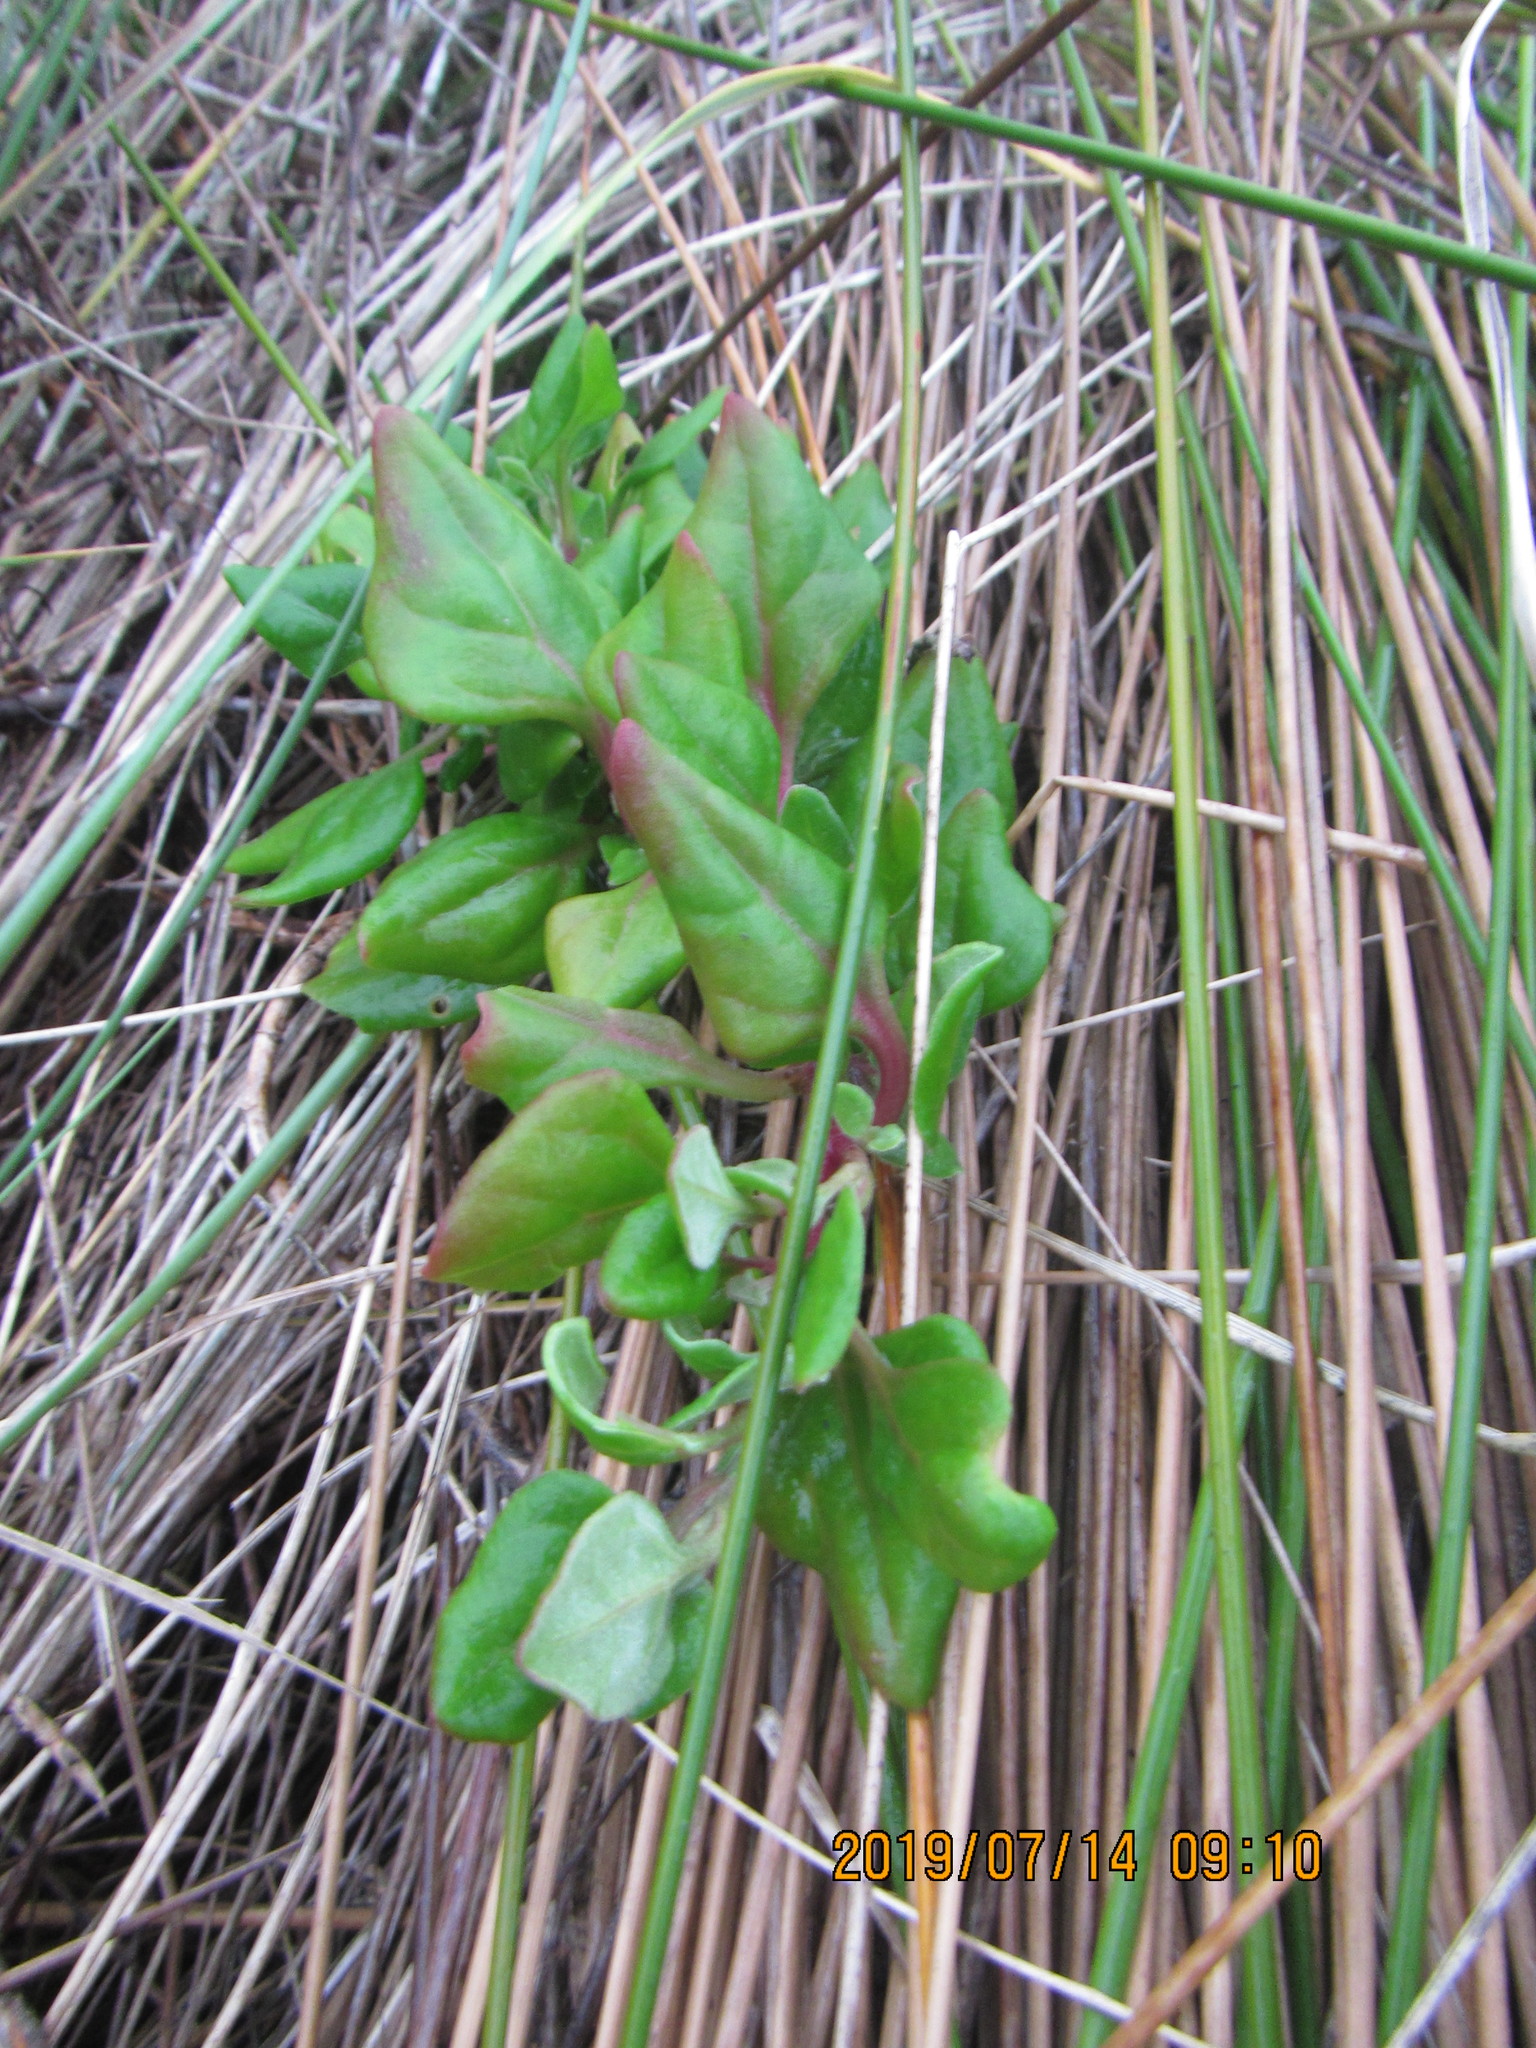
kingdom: Plantae
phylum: Tracheophyta
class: Magnoliopsida
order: Caryophyllales
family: Aizoaceae
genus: Tetragonia
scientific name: Tetragonia implexicoma
